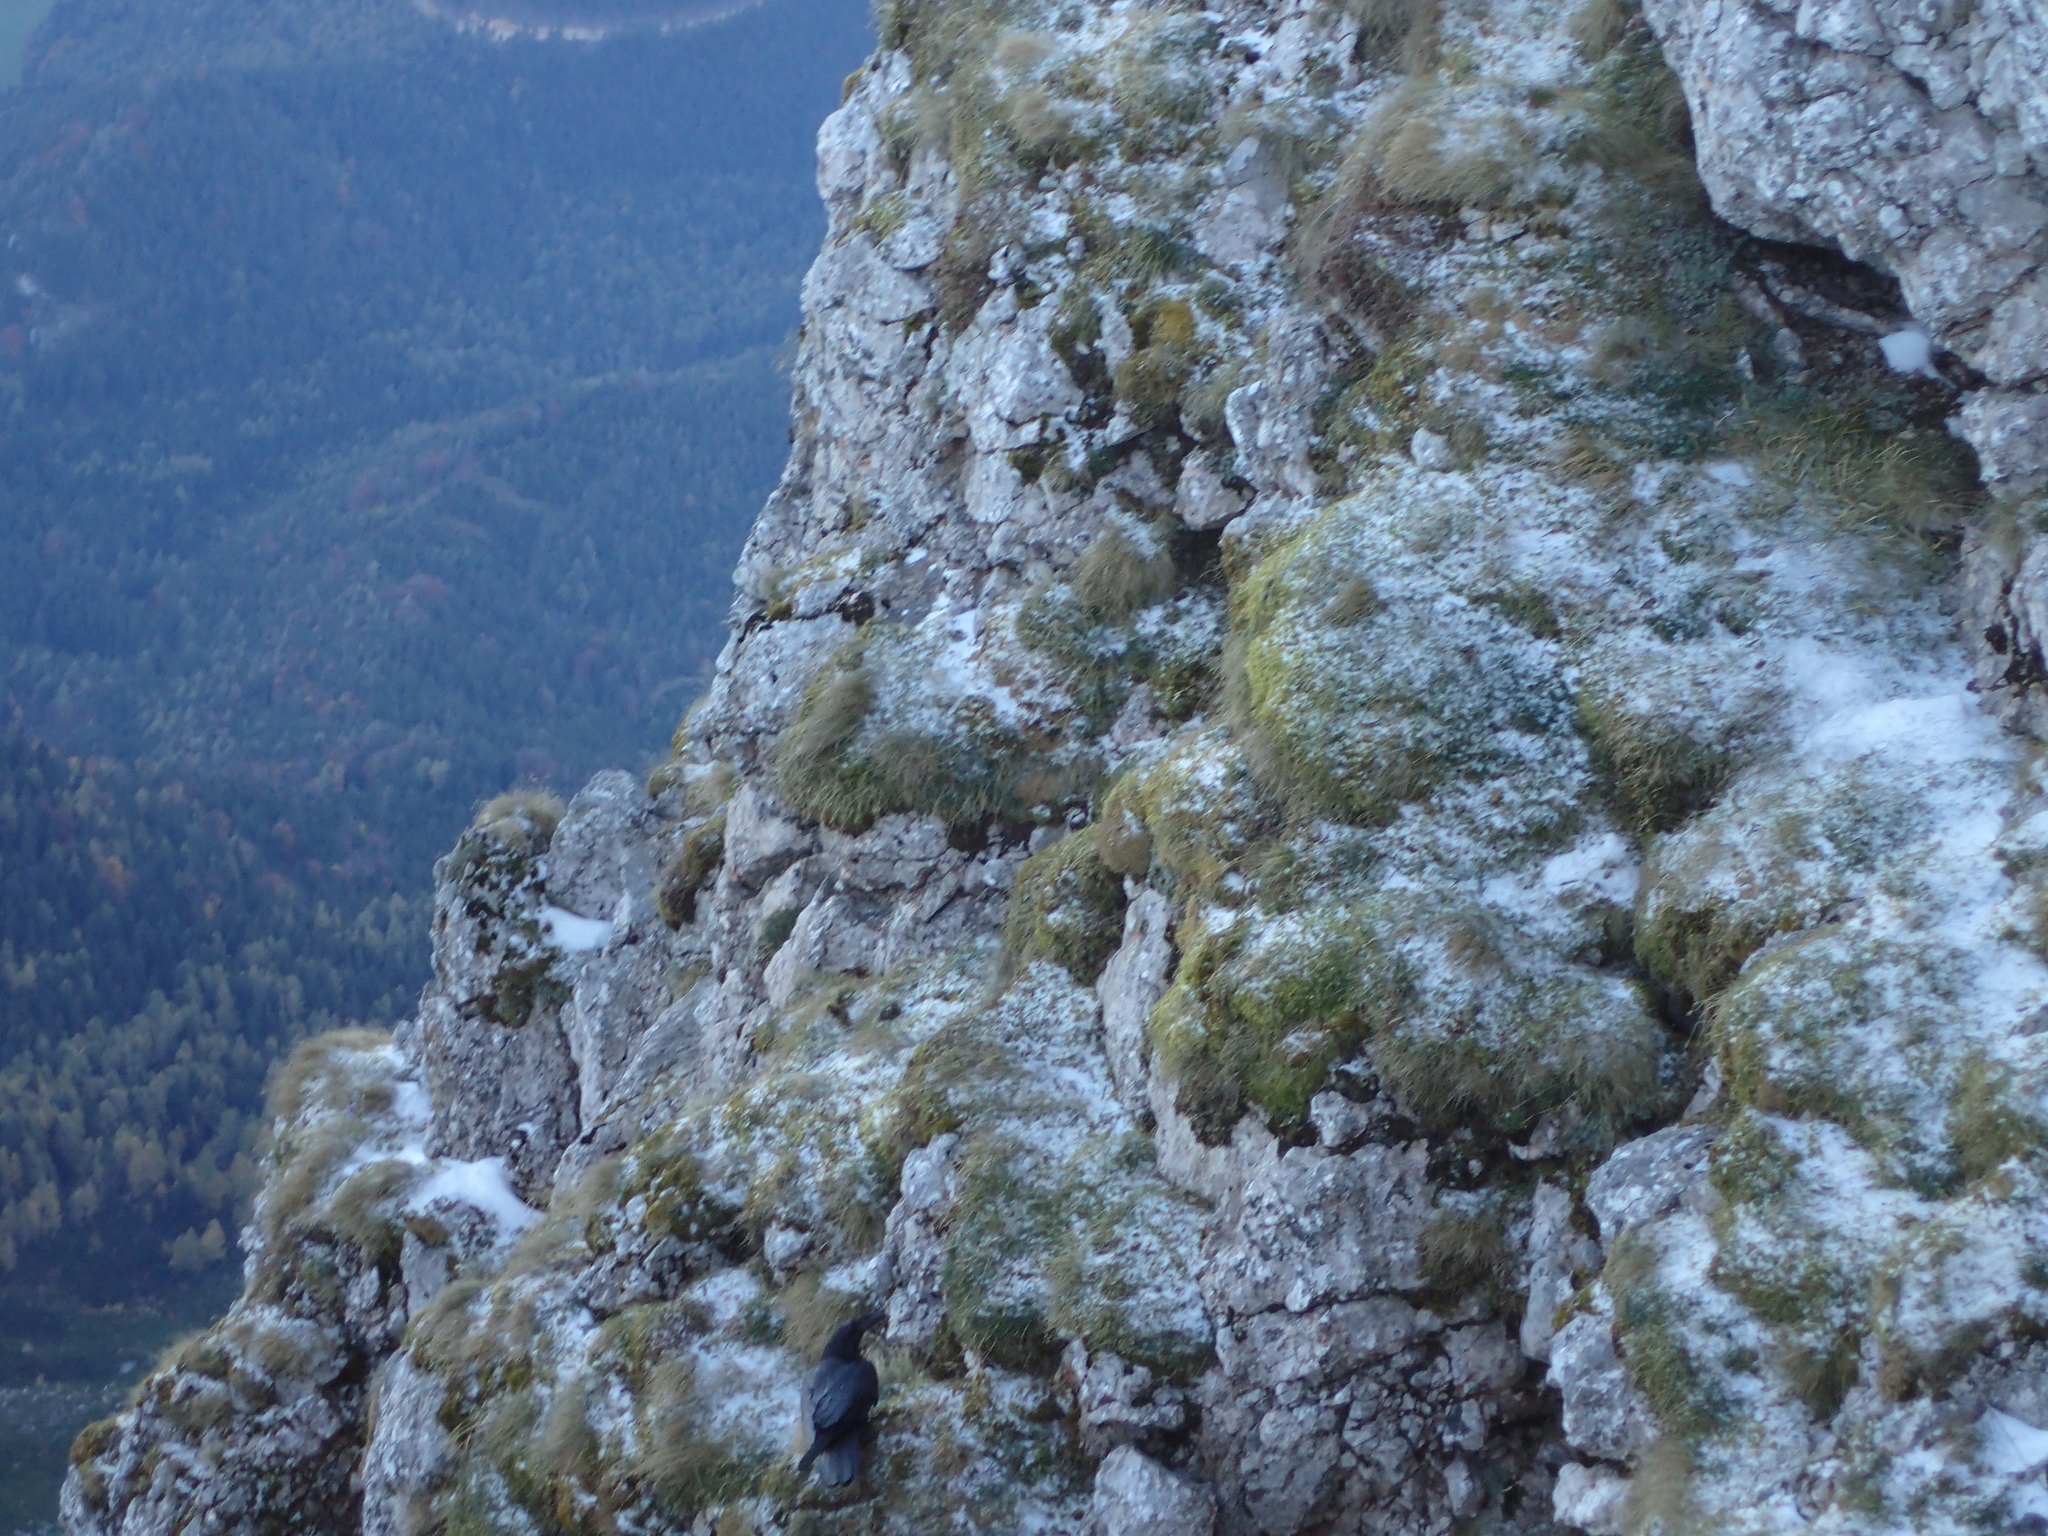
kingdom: Animalia
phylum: Chordata
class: Aves
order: Passeriformes
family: Corvidae
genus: Corvus
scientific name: Corvus corax
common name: Common raven
